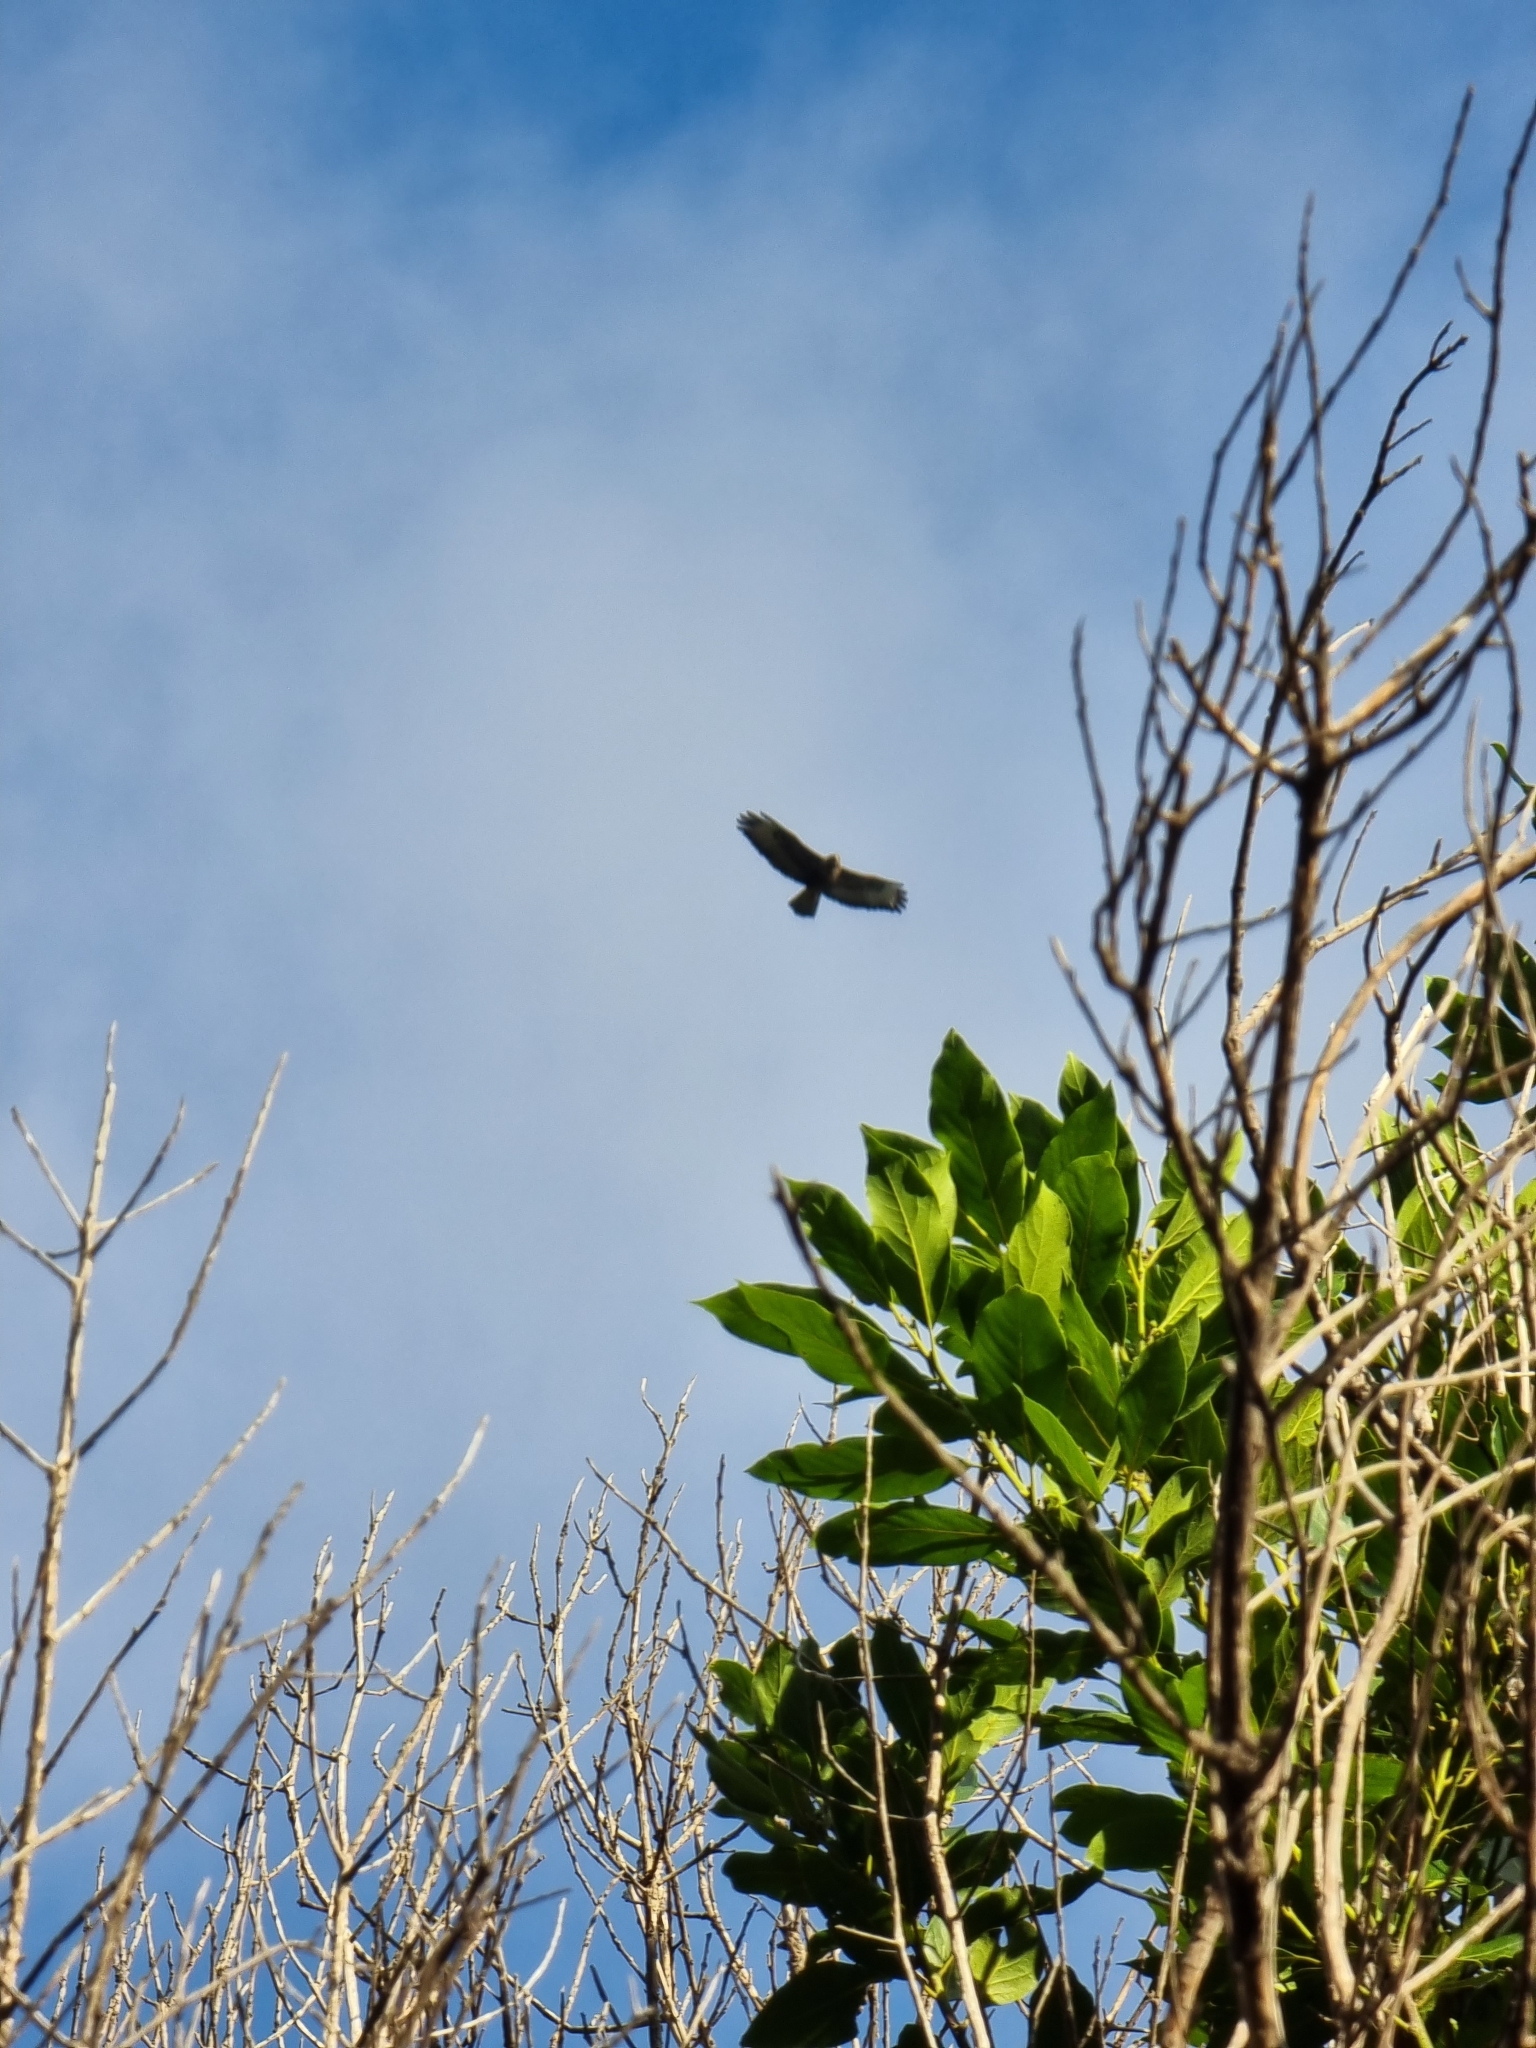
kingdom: Animalia
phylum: Chordata
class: Aves
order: Accipitriformes
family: Accipitridae
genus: Buteo
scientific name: Buteo buteo
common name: Common buzzard
